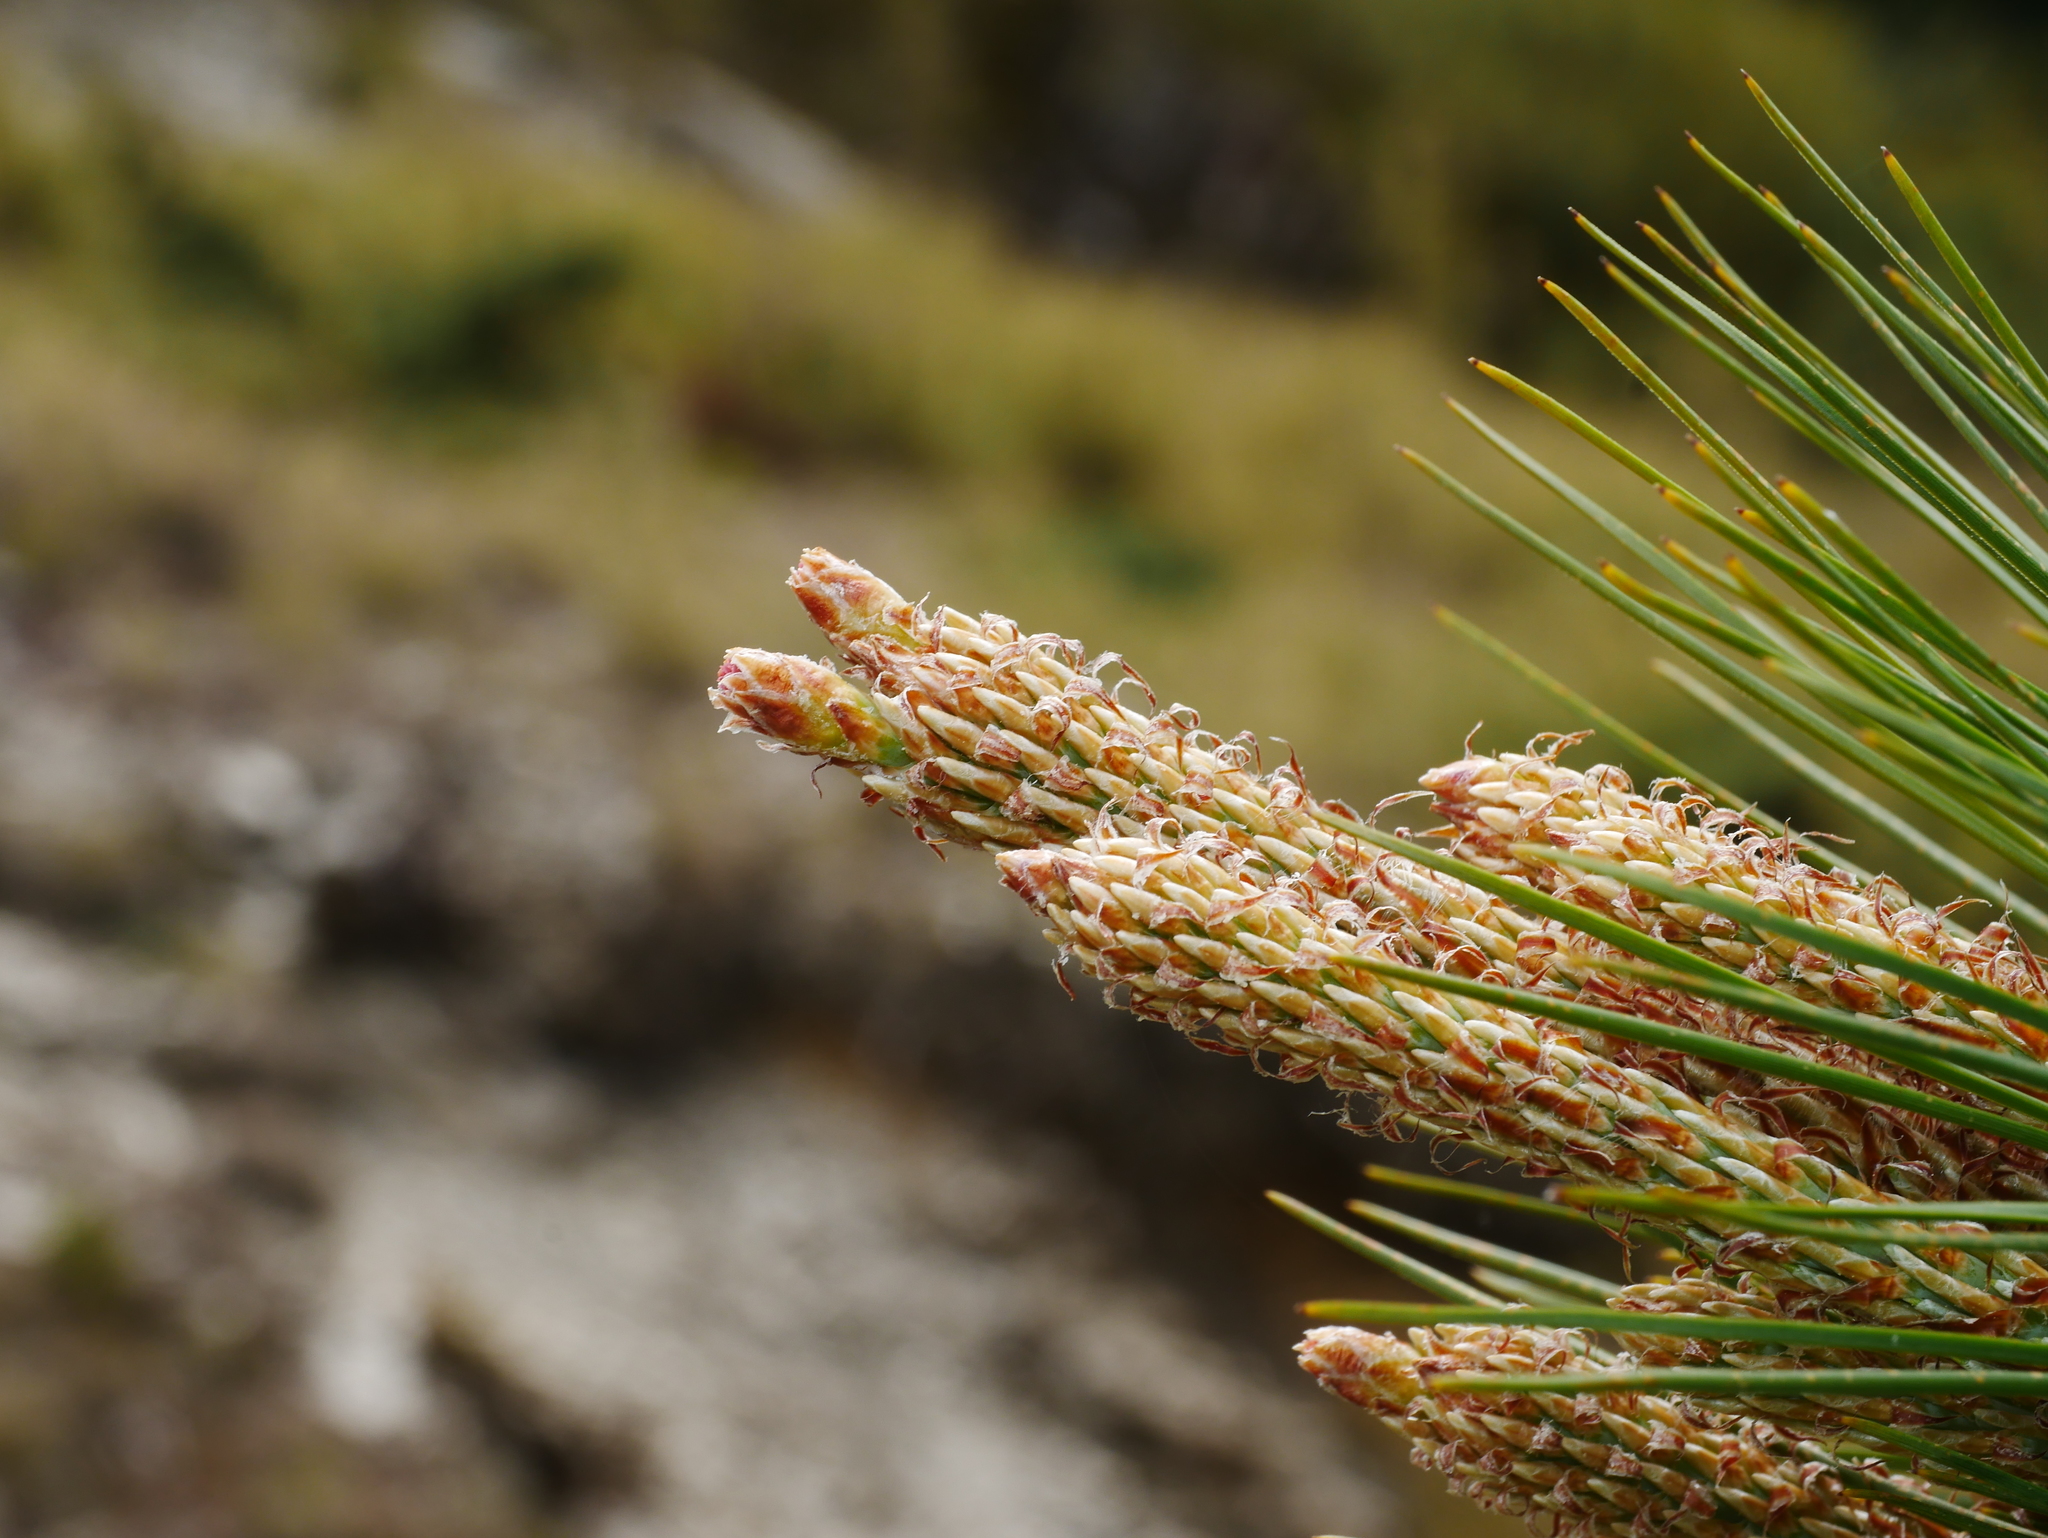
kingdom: Plantae
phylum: Tracheophyta
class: Pinopsida
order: Pinales
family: Pinaceae
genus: Pinus
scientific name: Pinus taiwanensis
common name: Formosa pine
